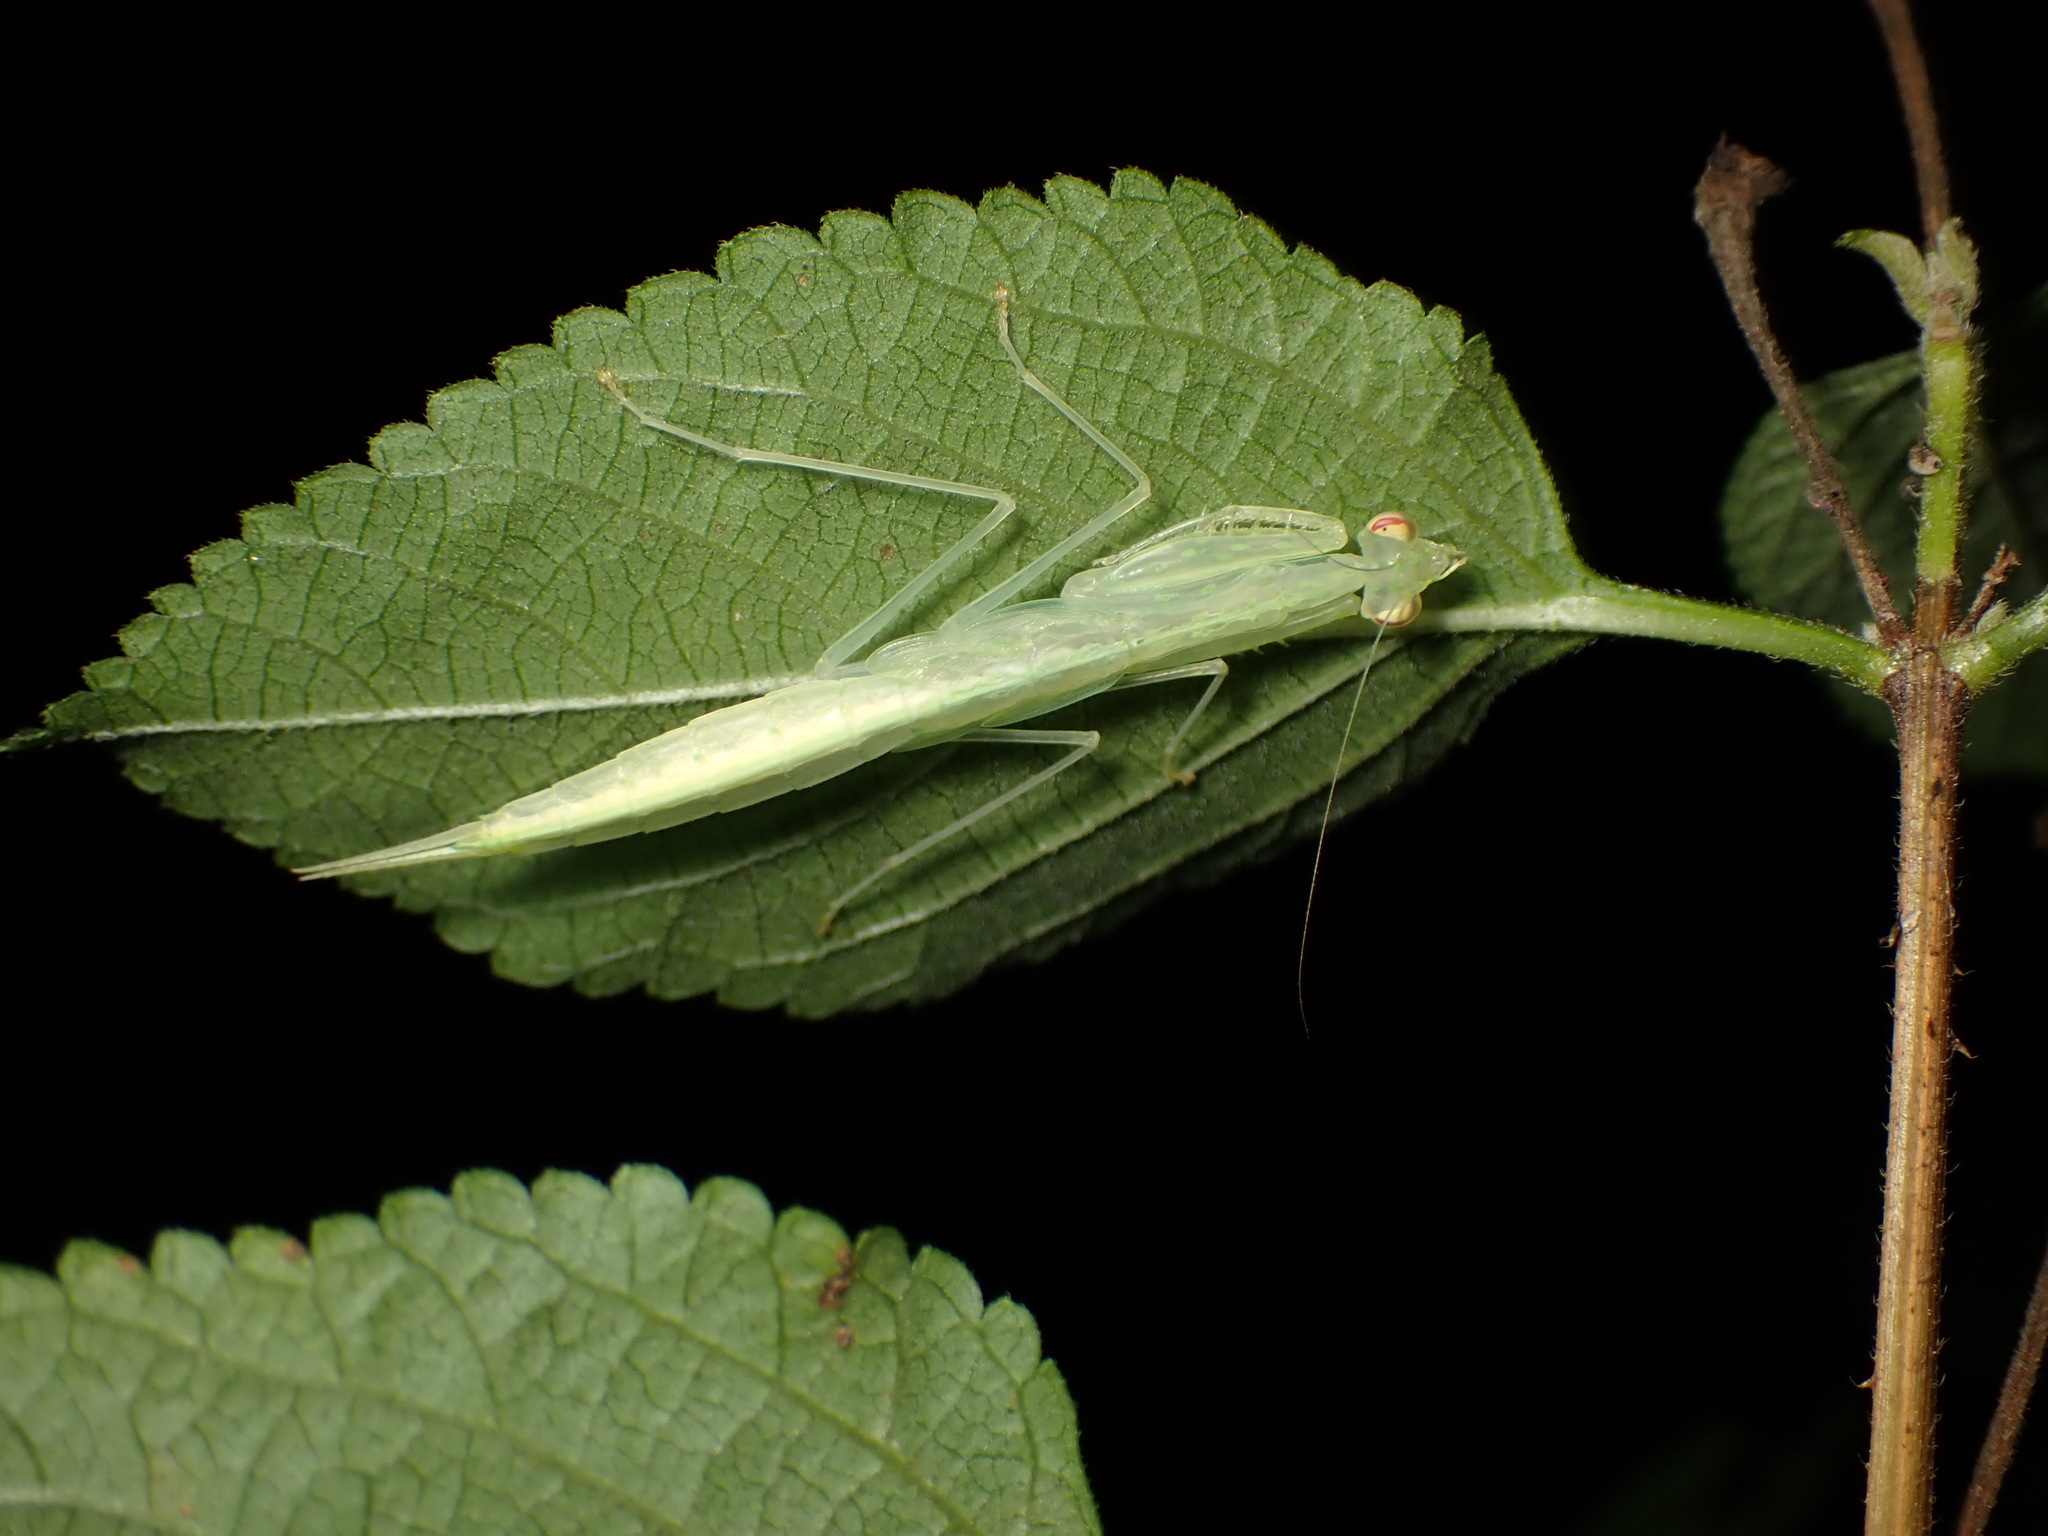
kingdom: Animalia
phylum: Arthropoda
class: Insecta
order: Mantodea
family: Nanomantidae
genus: Sinomantis
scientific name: Sinomantis denticulata
